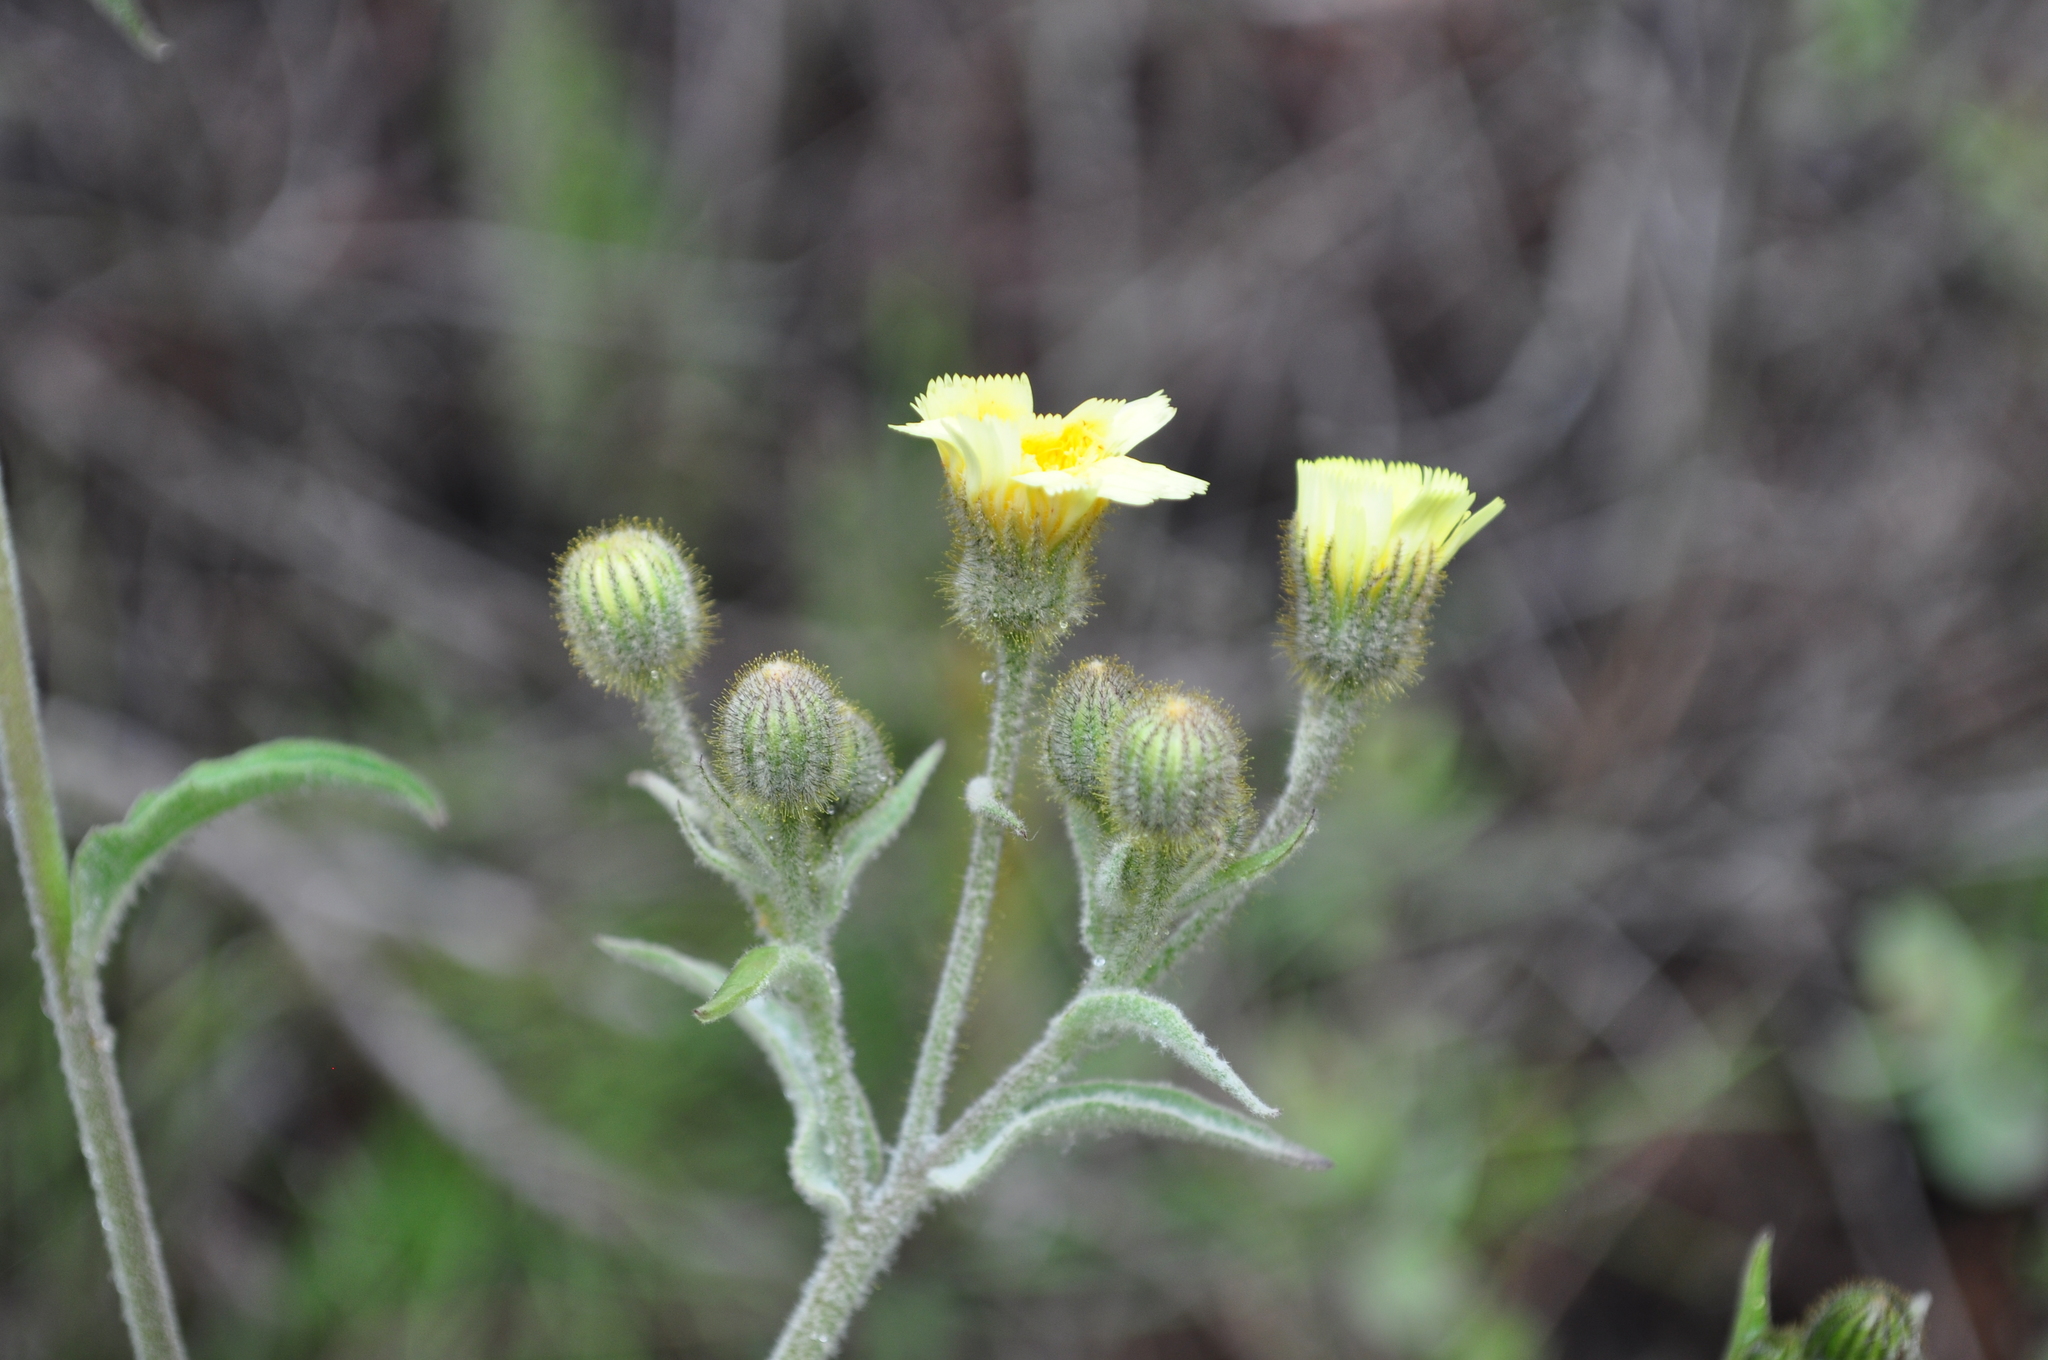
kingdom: Plantae
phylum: Tracheophyta
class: Magnoliopsida
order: Asterales
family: Asteraceae
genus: Andryala
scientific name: Andryala integrifolia
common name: Common andryala
